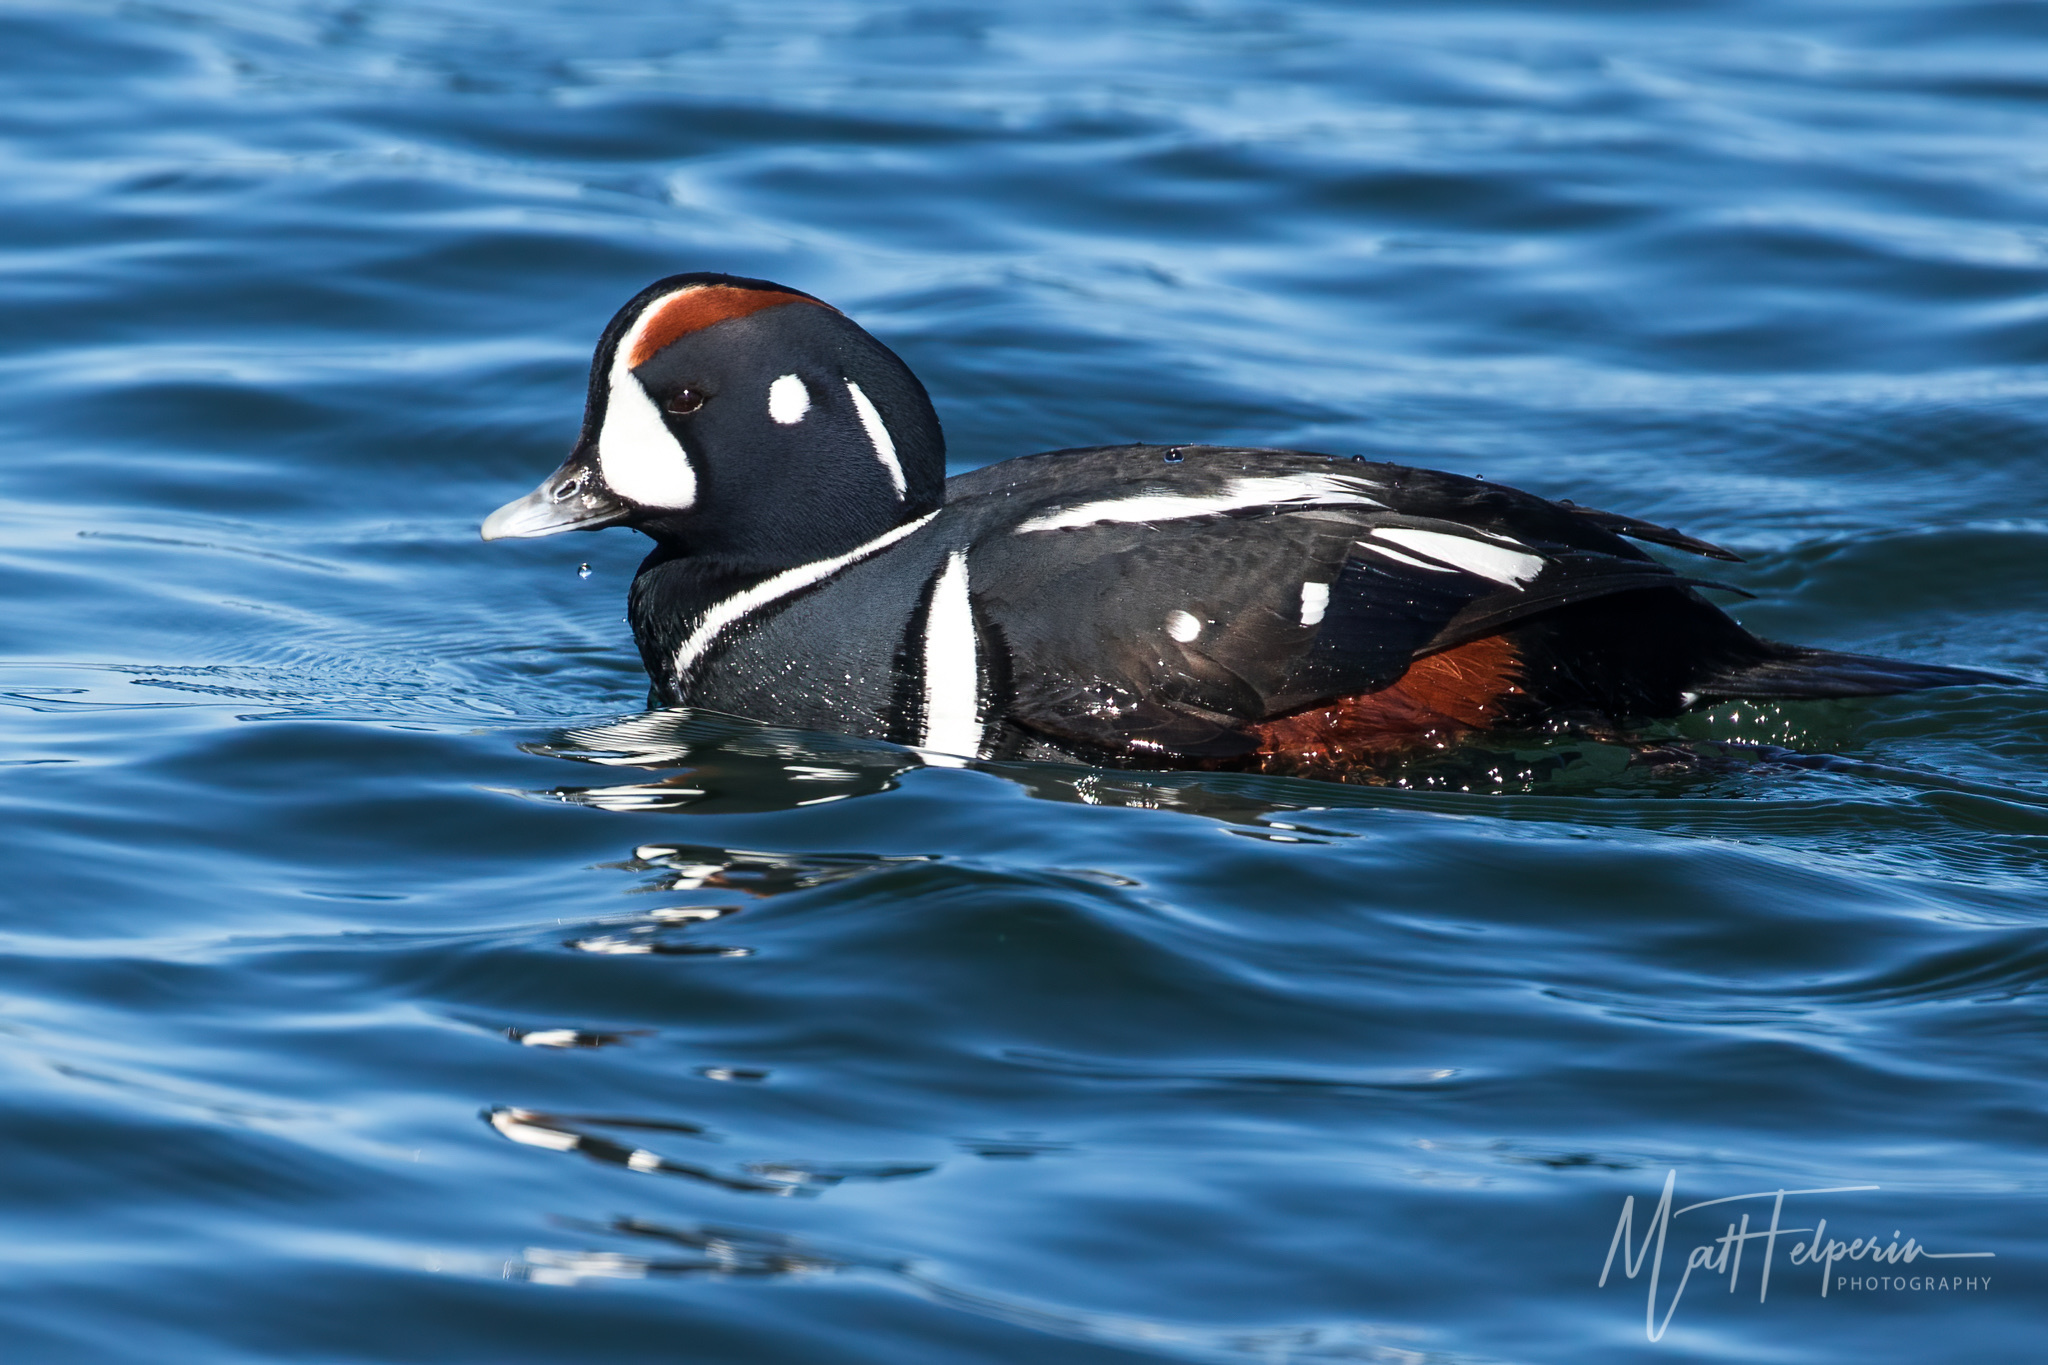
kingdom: Animalia
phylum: Chordata
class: Aves
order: Anseriformes
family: Anatidae
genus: Histrionicus
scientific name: Histrionicus histrionicus
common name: Harlequin duck
